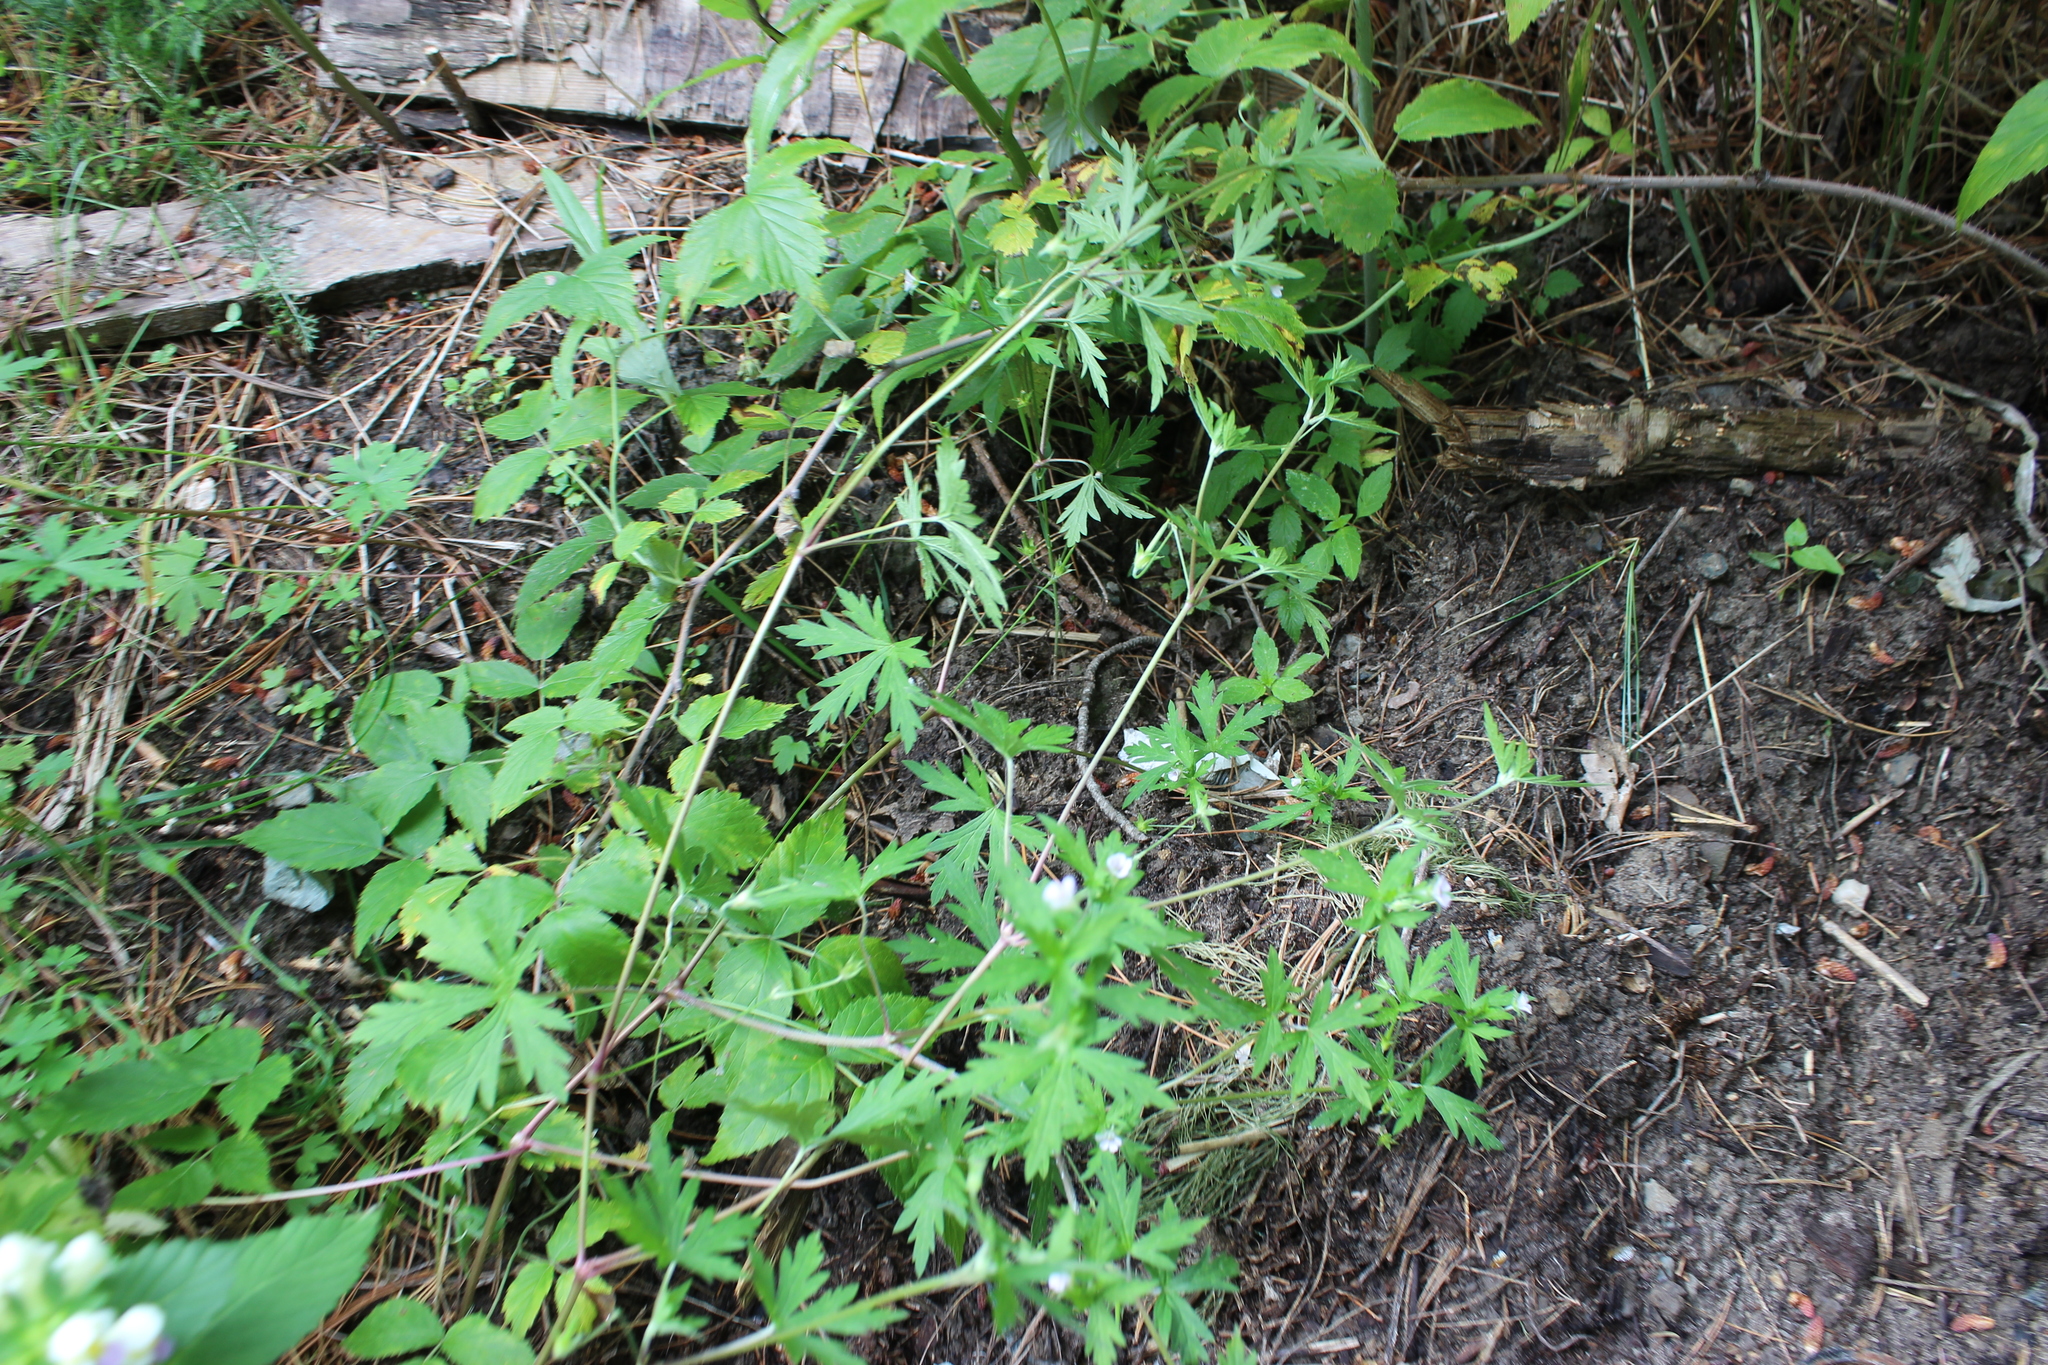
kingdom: Plantae
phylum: Tracheophyta
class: Magnoliopsida
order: Geraniales
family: Geraniaceae
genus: Geranium
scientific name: Geranium sibiricum
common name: Siberian crane's-bill
